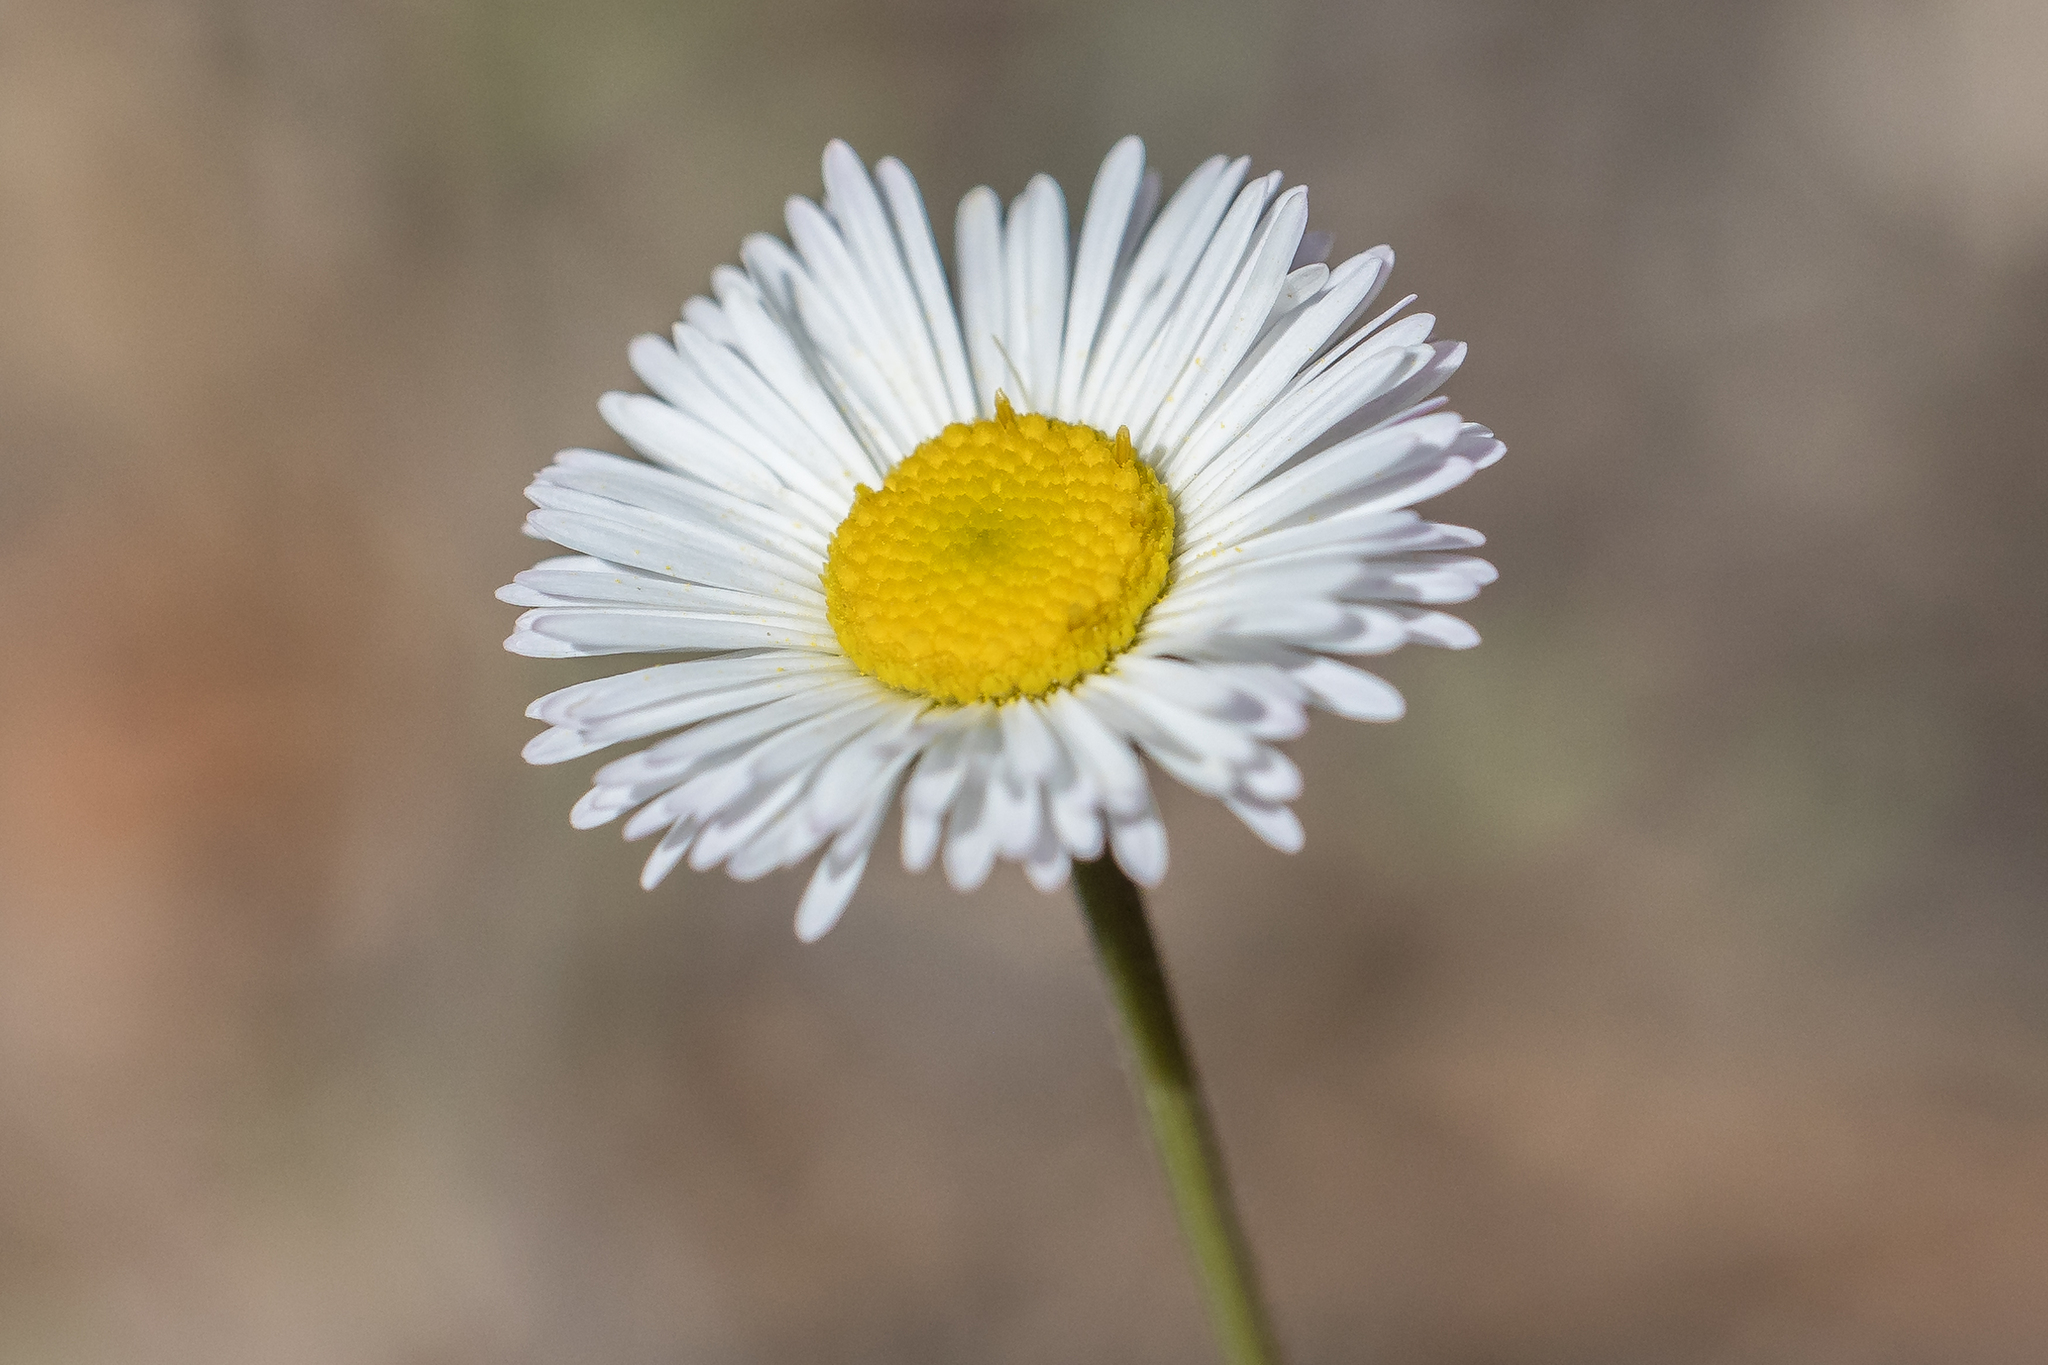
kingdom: Plantae
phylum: Tracheophyta
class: Magnoliopsida
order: Asterales
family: Asteraceae
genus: Erigeron
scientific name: Erigeron flagellaris
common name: Running fleabane
